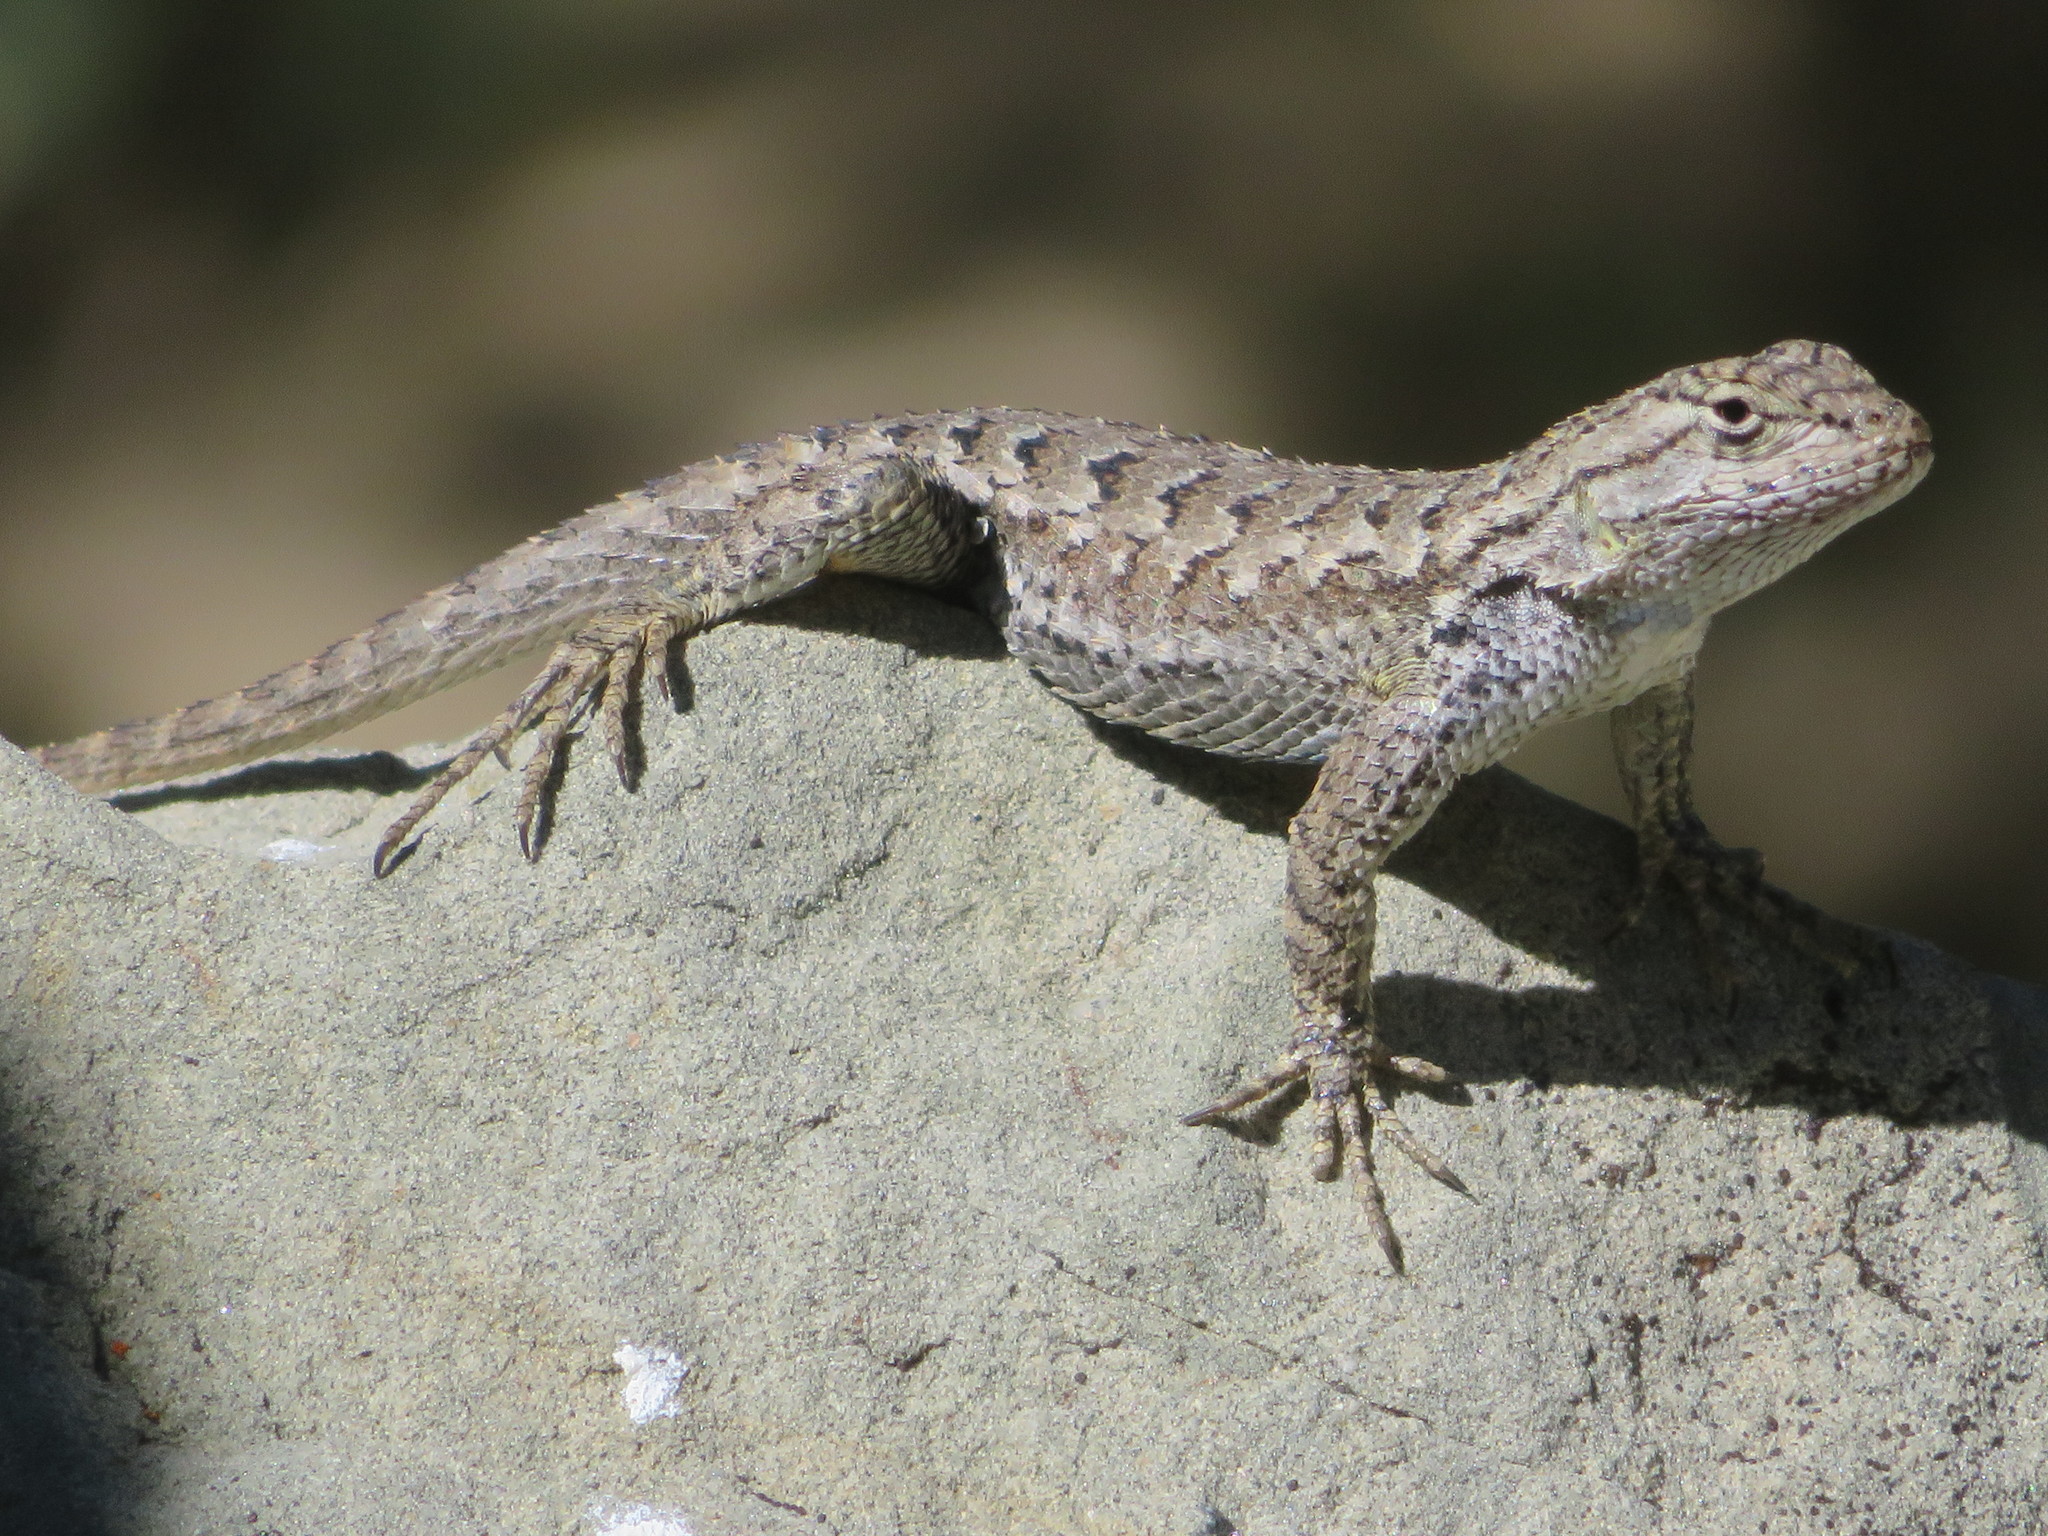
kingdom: Animalia
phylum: Chordata
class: Squamata
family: Phrynosomatidae
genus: Sceloporus
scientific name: Sceloporus occidentalis
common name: Western fence lizard
